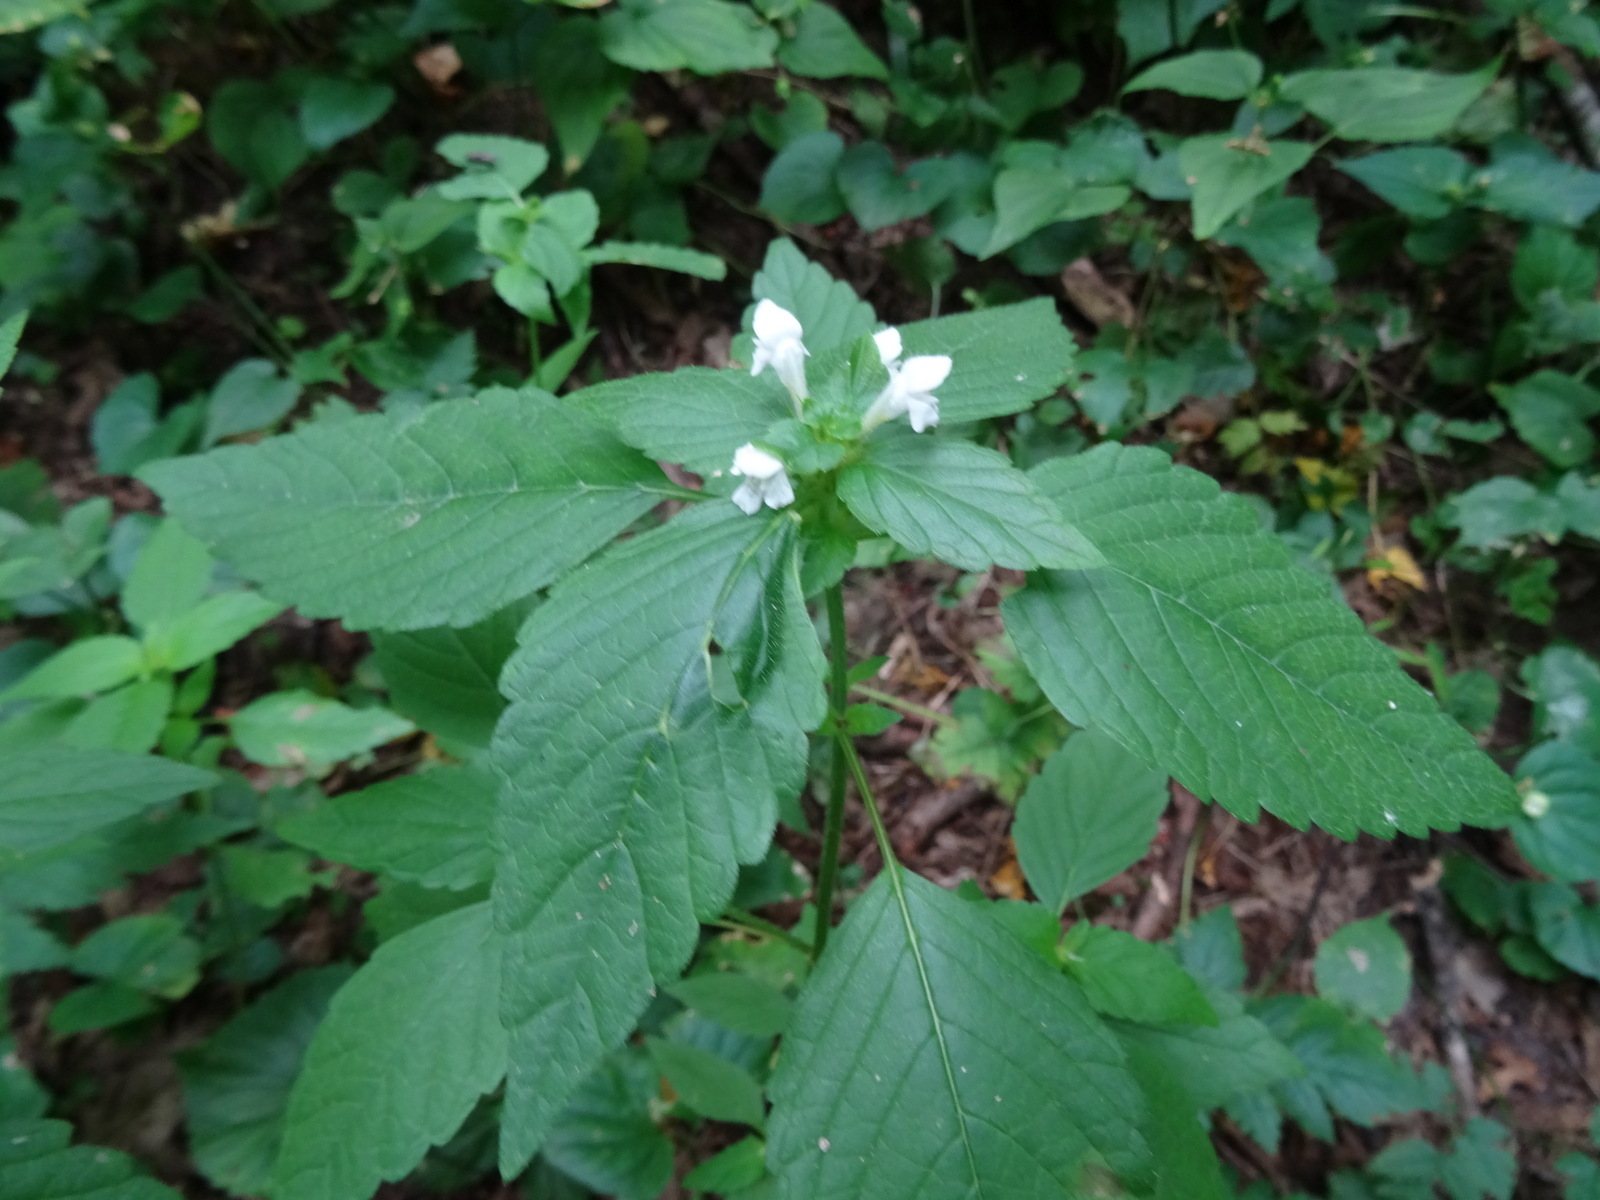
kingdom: Plantae
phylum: Tracheophyta
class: Magnoliopsida
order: Lamiales
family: Lamiaceae
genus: Galeopsis
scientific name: Galeopsis tetrahit
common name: Common hemp-nettle
